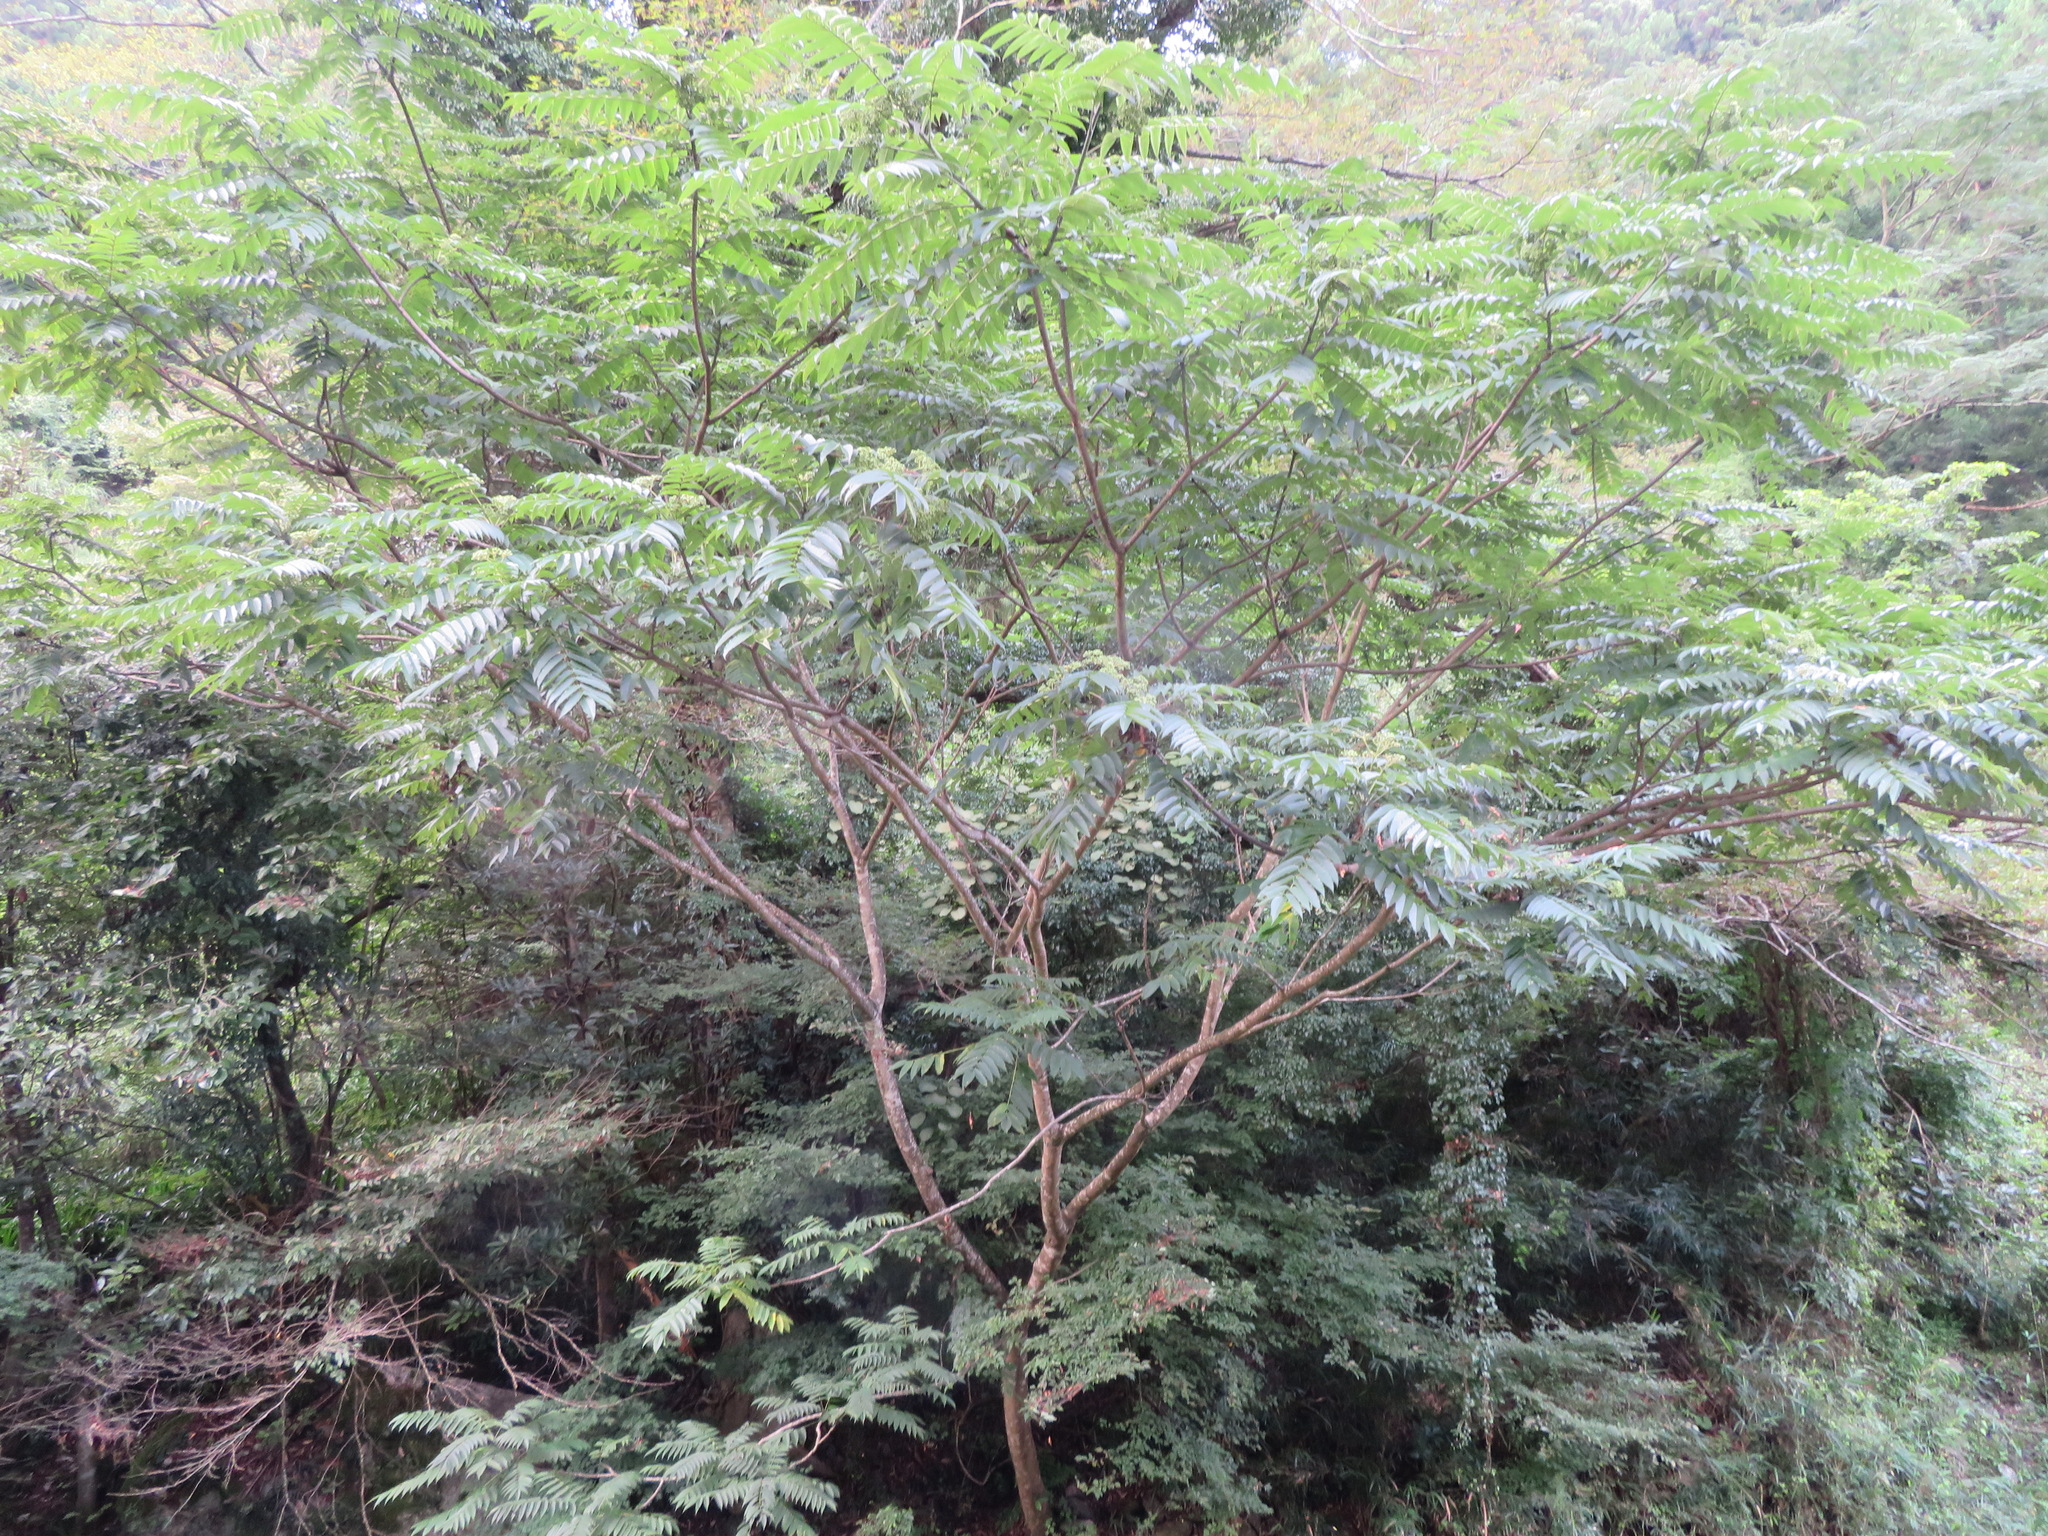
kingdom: Plantae
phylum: Tracheophyta
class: Magnoliopsida
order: Sapindales
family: Anacardiaceae
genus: Toxicodendron
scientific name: Toxicodendron sylvestre
